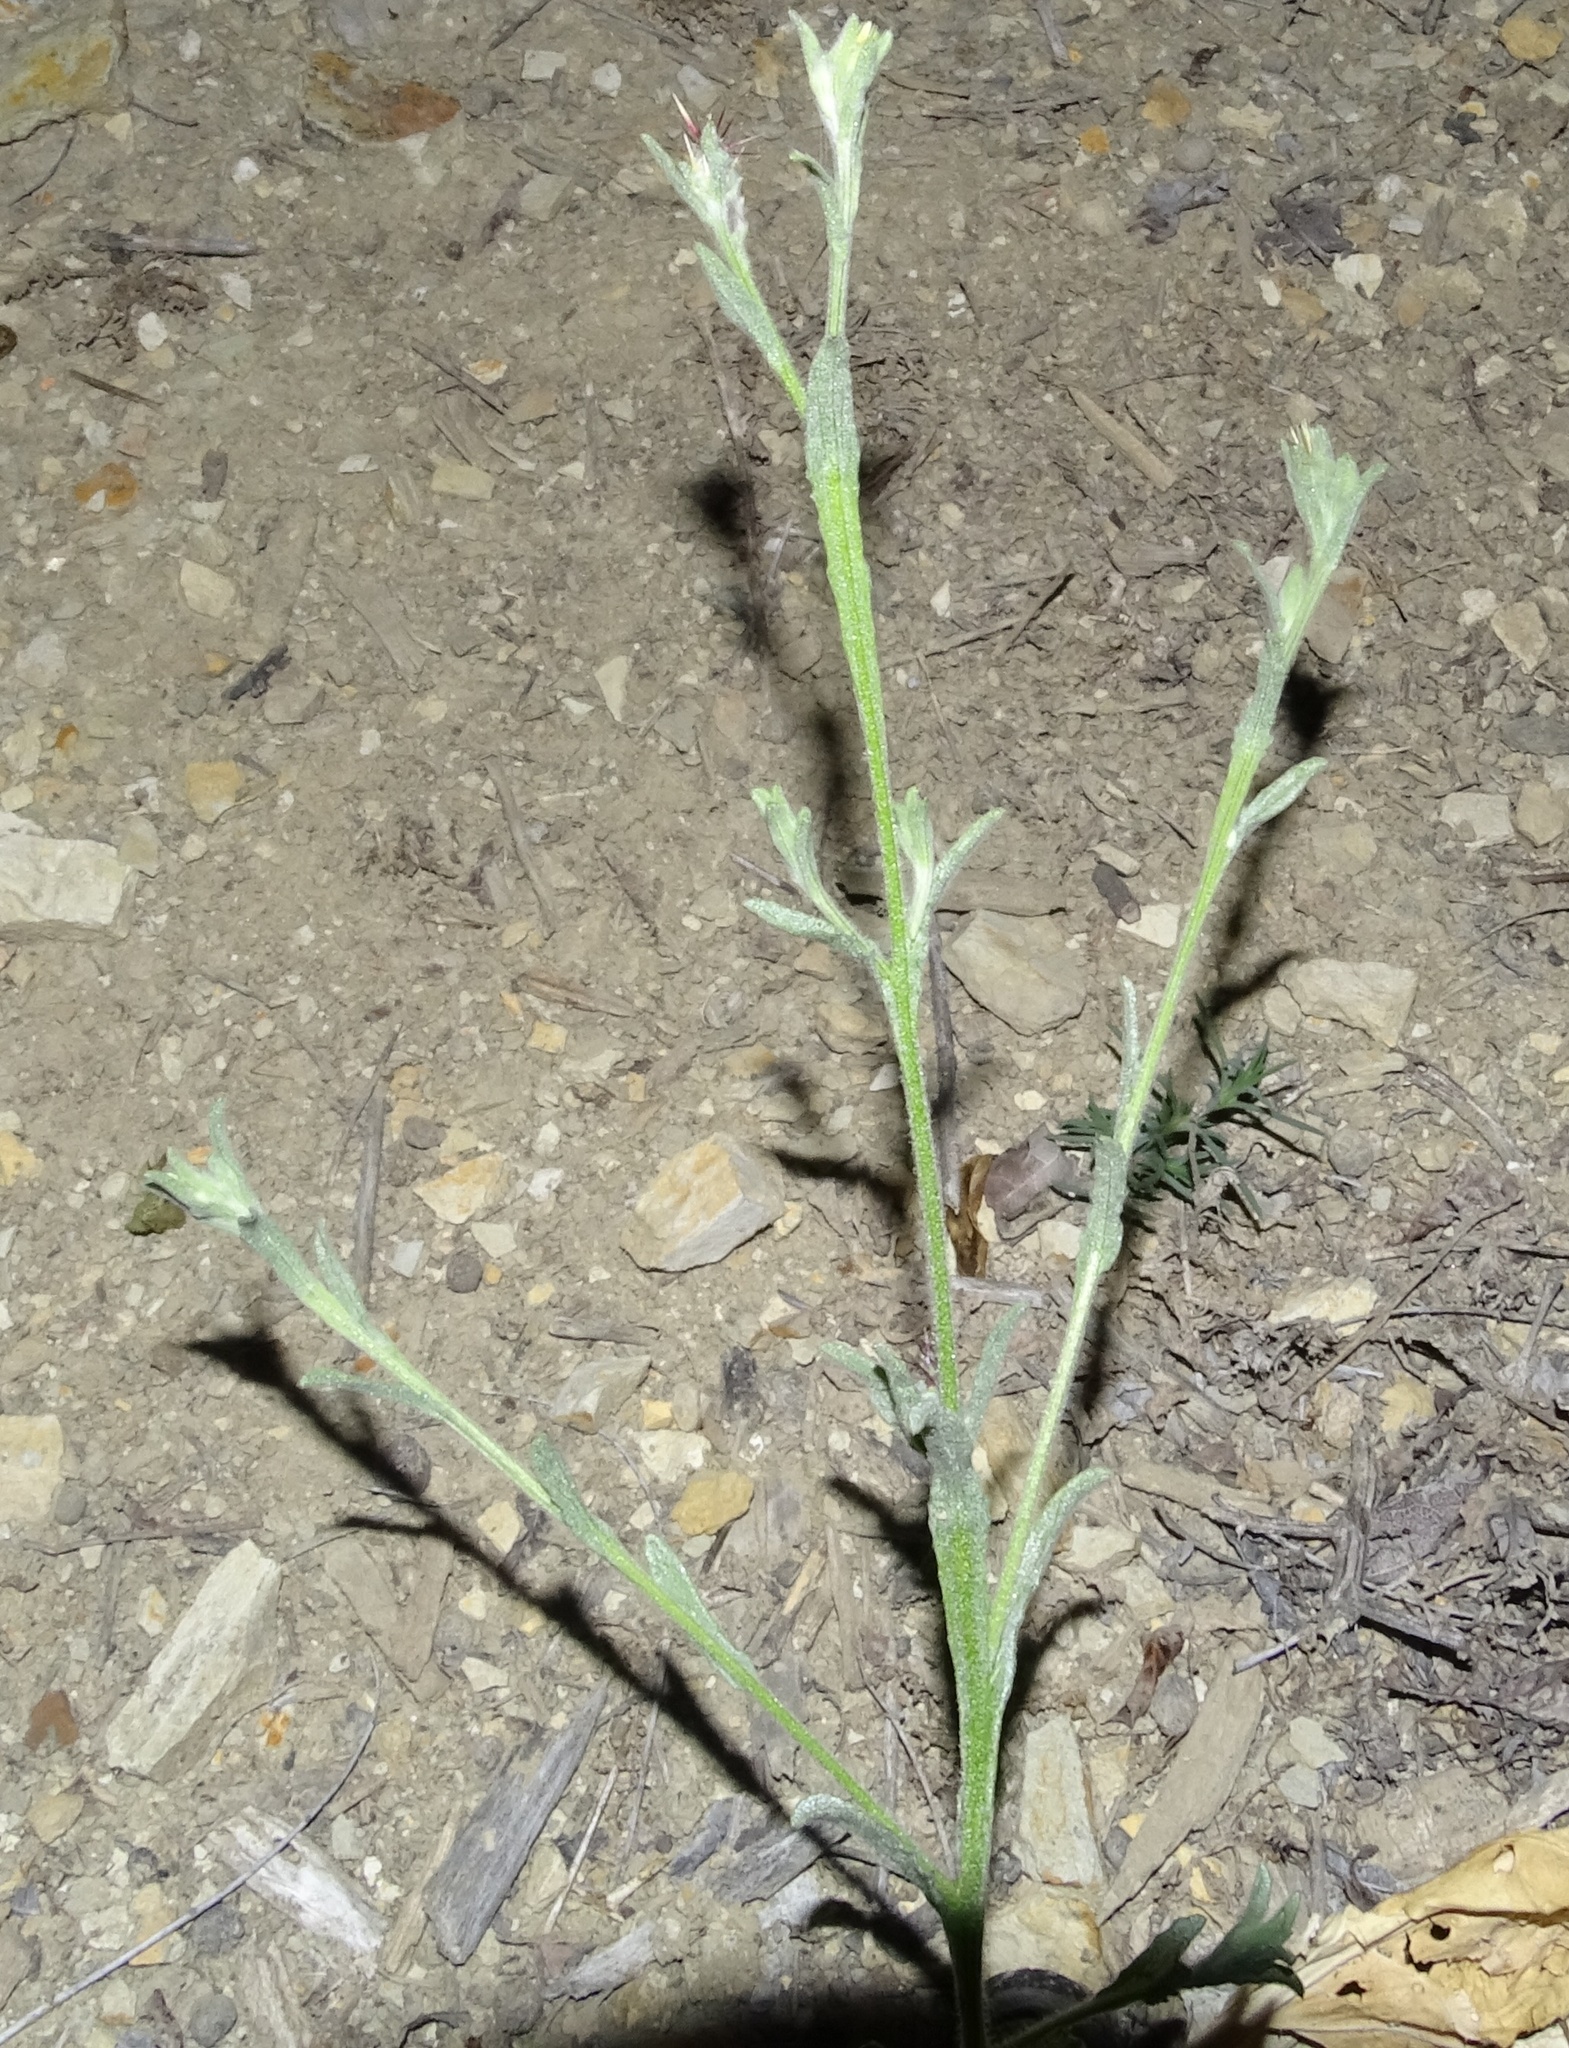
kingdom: Plantae
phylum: Tracheophyta
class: Magnoliopsida
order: Asterales
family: Asteraceae
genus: Centaurea
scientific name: Centaurea melitensis
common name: Maltese star-thistle
